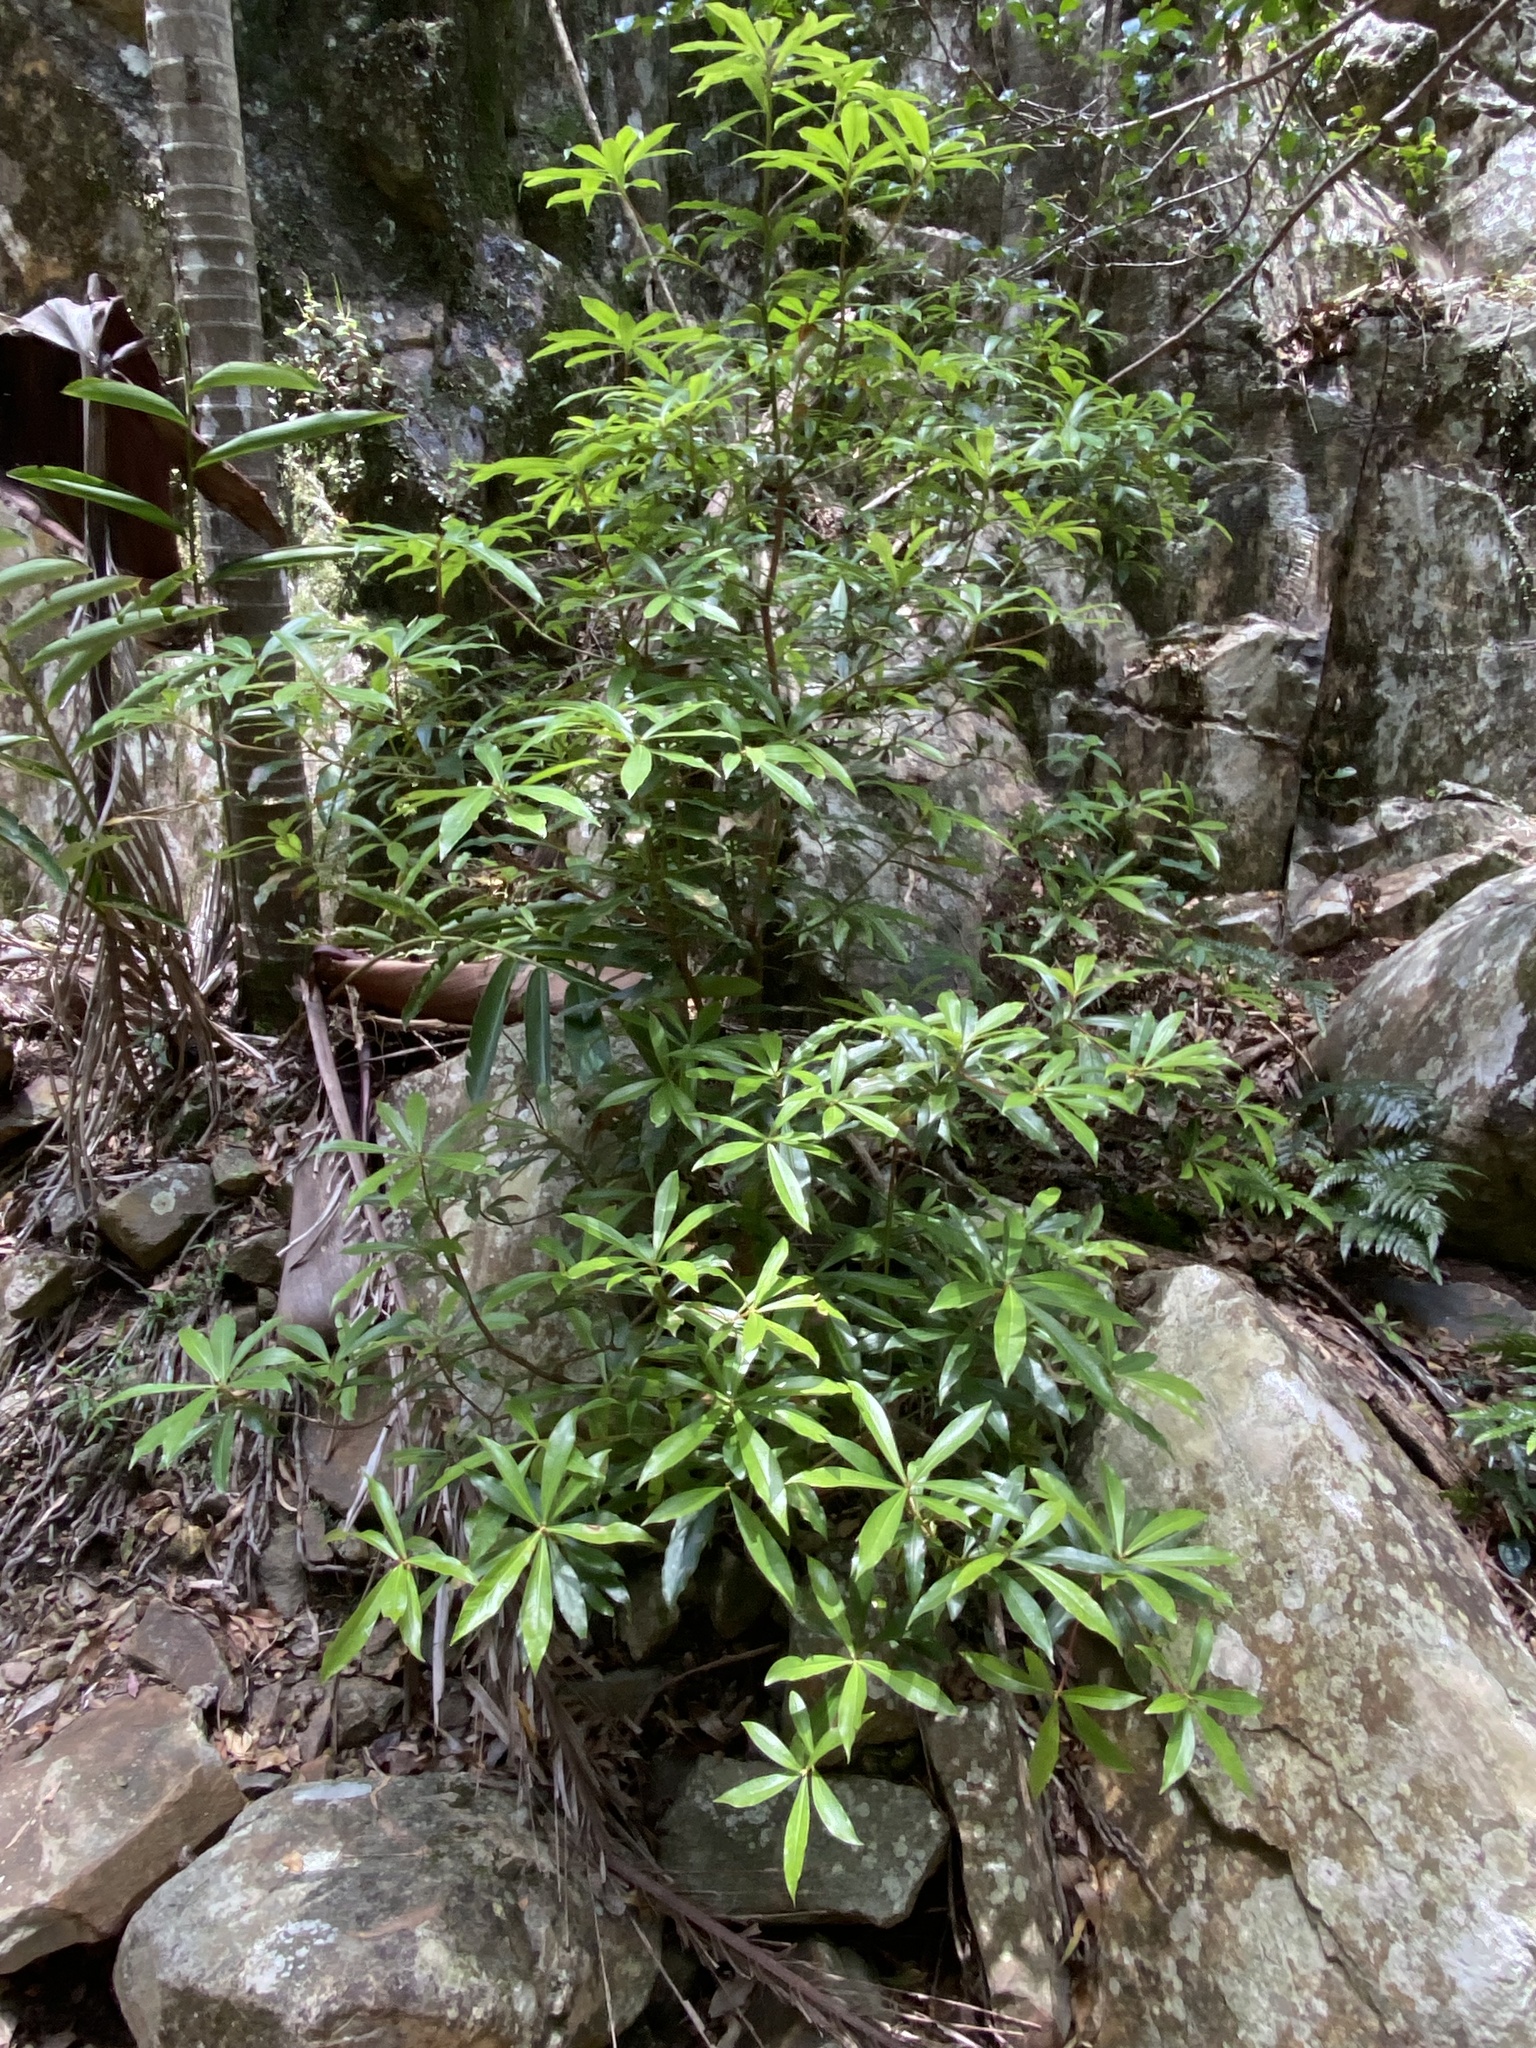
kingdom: Plantae
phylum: Tracheophyta
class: Magnoliopsida
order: Canellales
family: Winteraceae
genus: Drimys
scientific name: Drimys insipida
